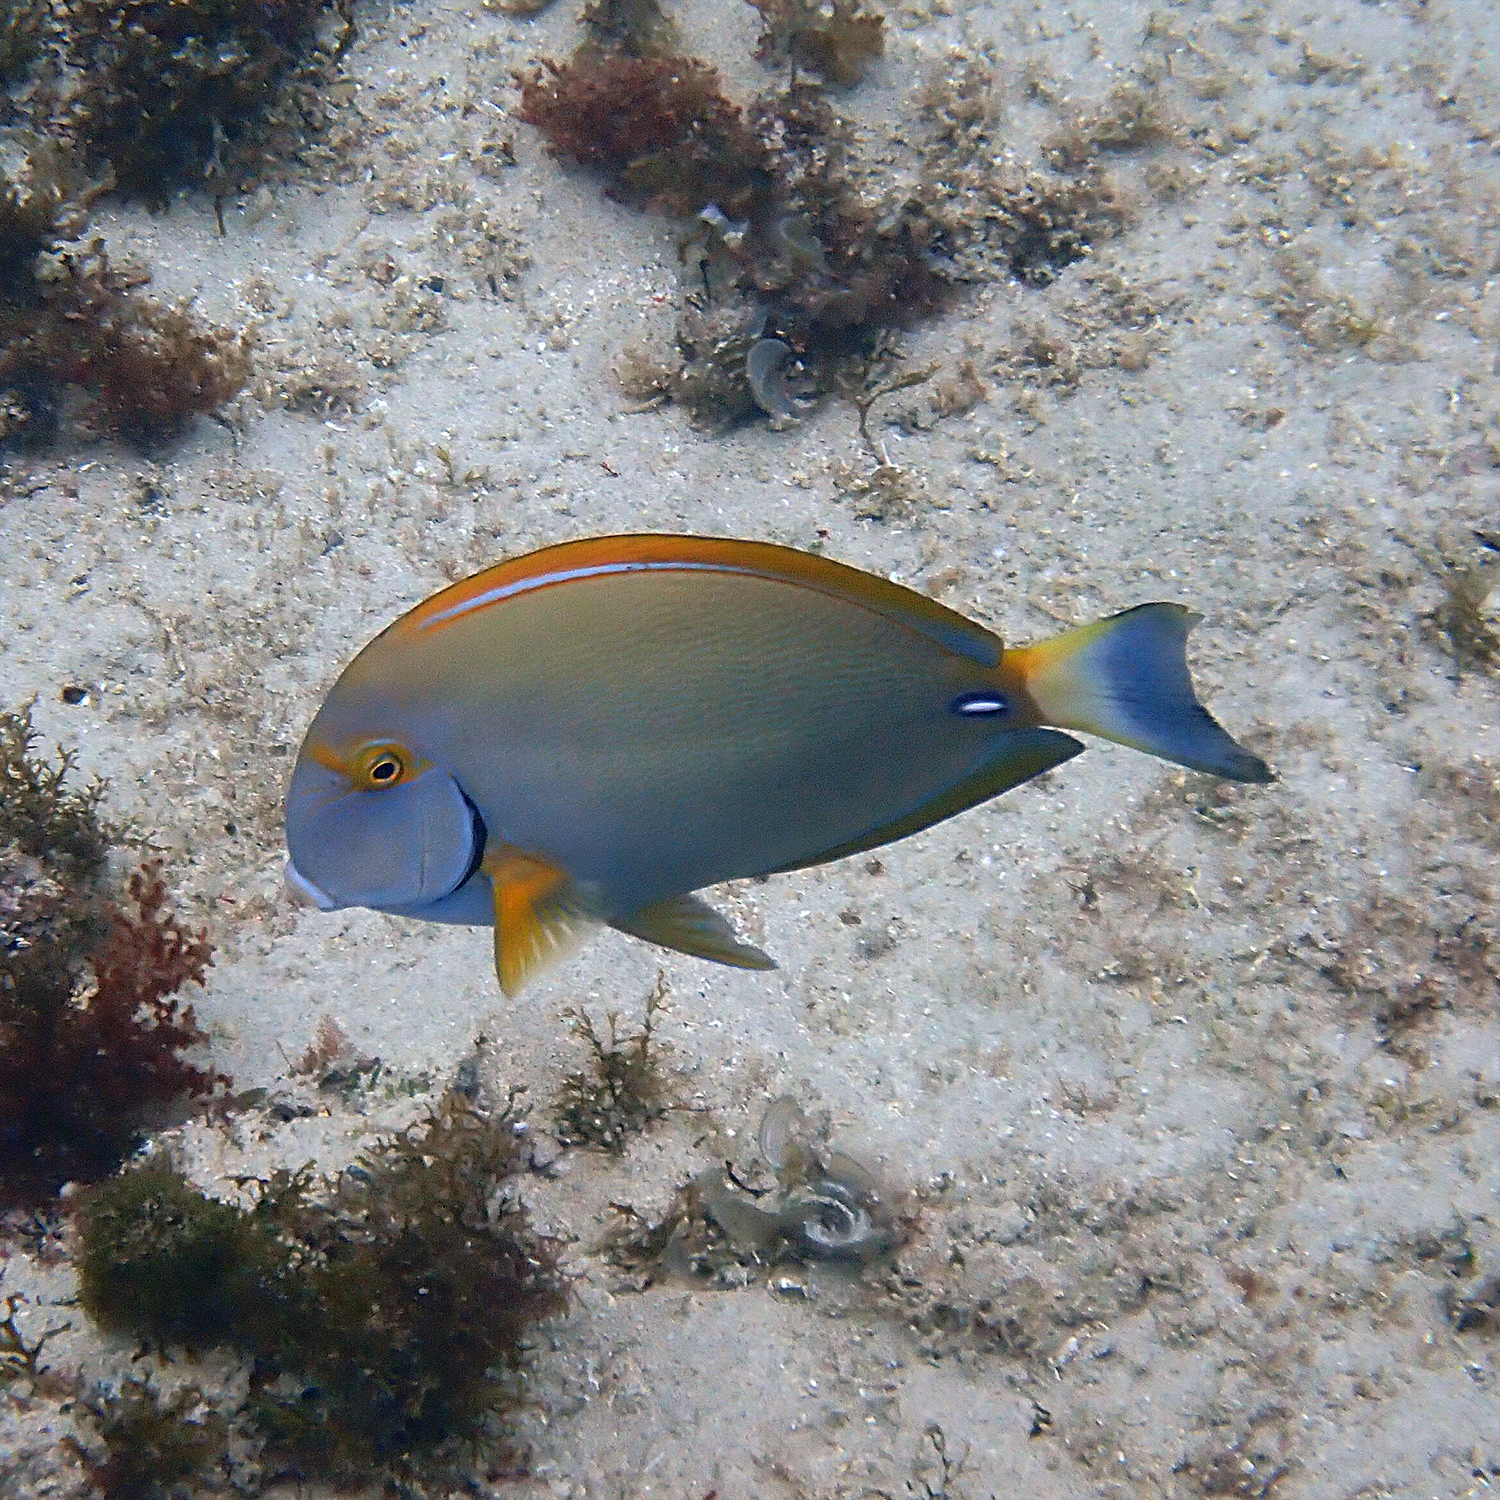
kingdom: Animalia
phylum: Chordata
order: Perciformes
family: Acanthuridae
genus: Acanthurus
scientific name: Acanthurus dussumieri
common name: Dussumier's surgeonfish
